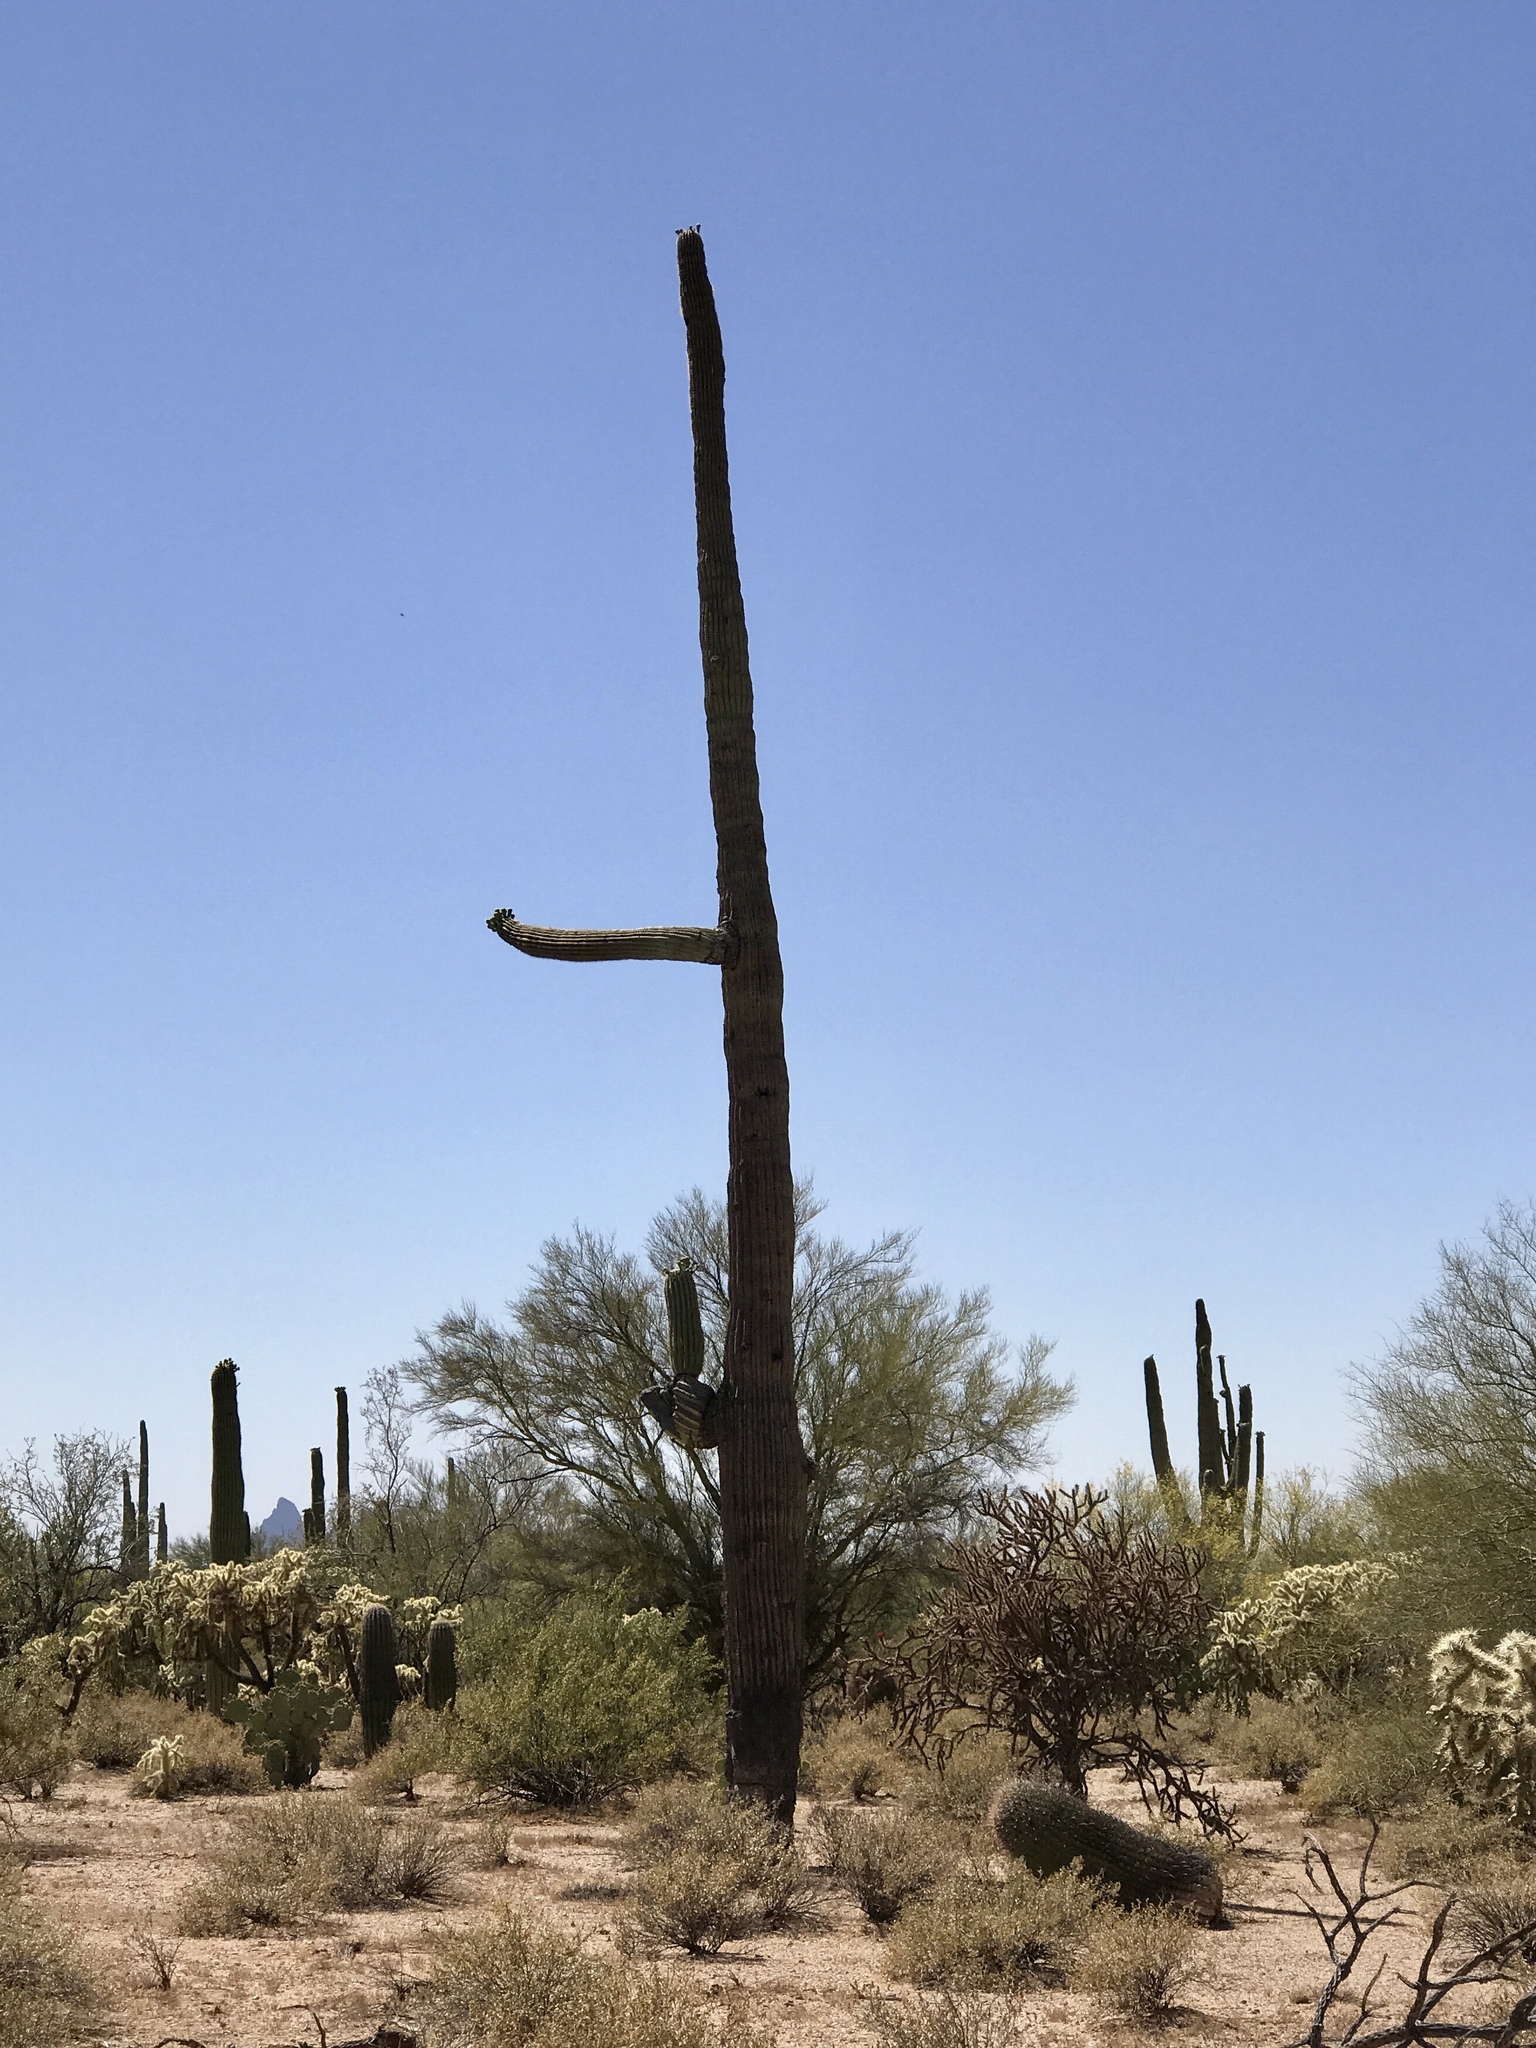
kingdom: Plantae
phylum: Tracheophyta
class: Magnoliopsida
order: Caryophyllales
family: Cactaceae
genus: Carnegiea
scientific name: Carnegiea gigantea
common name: Saguaro
